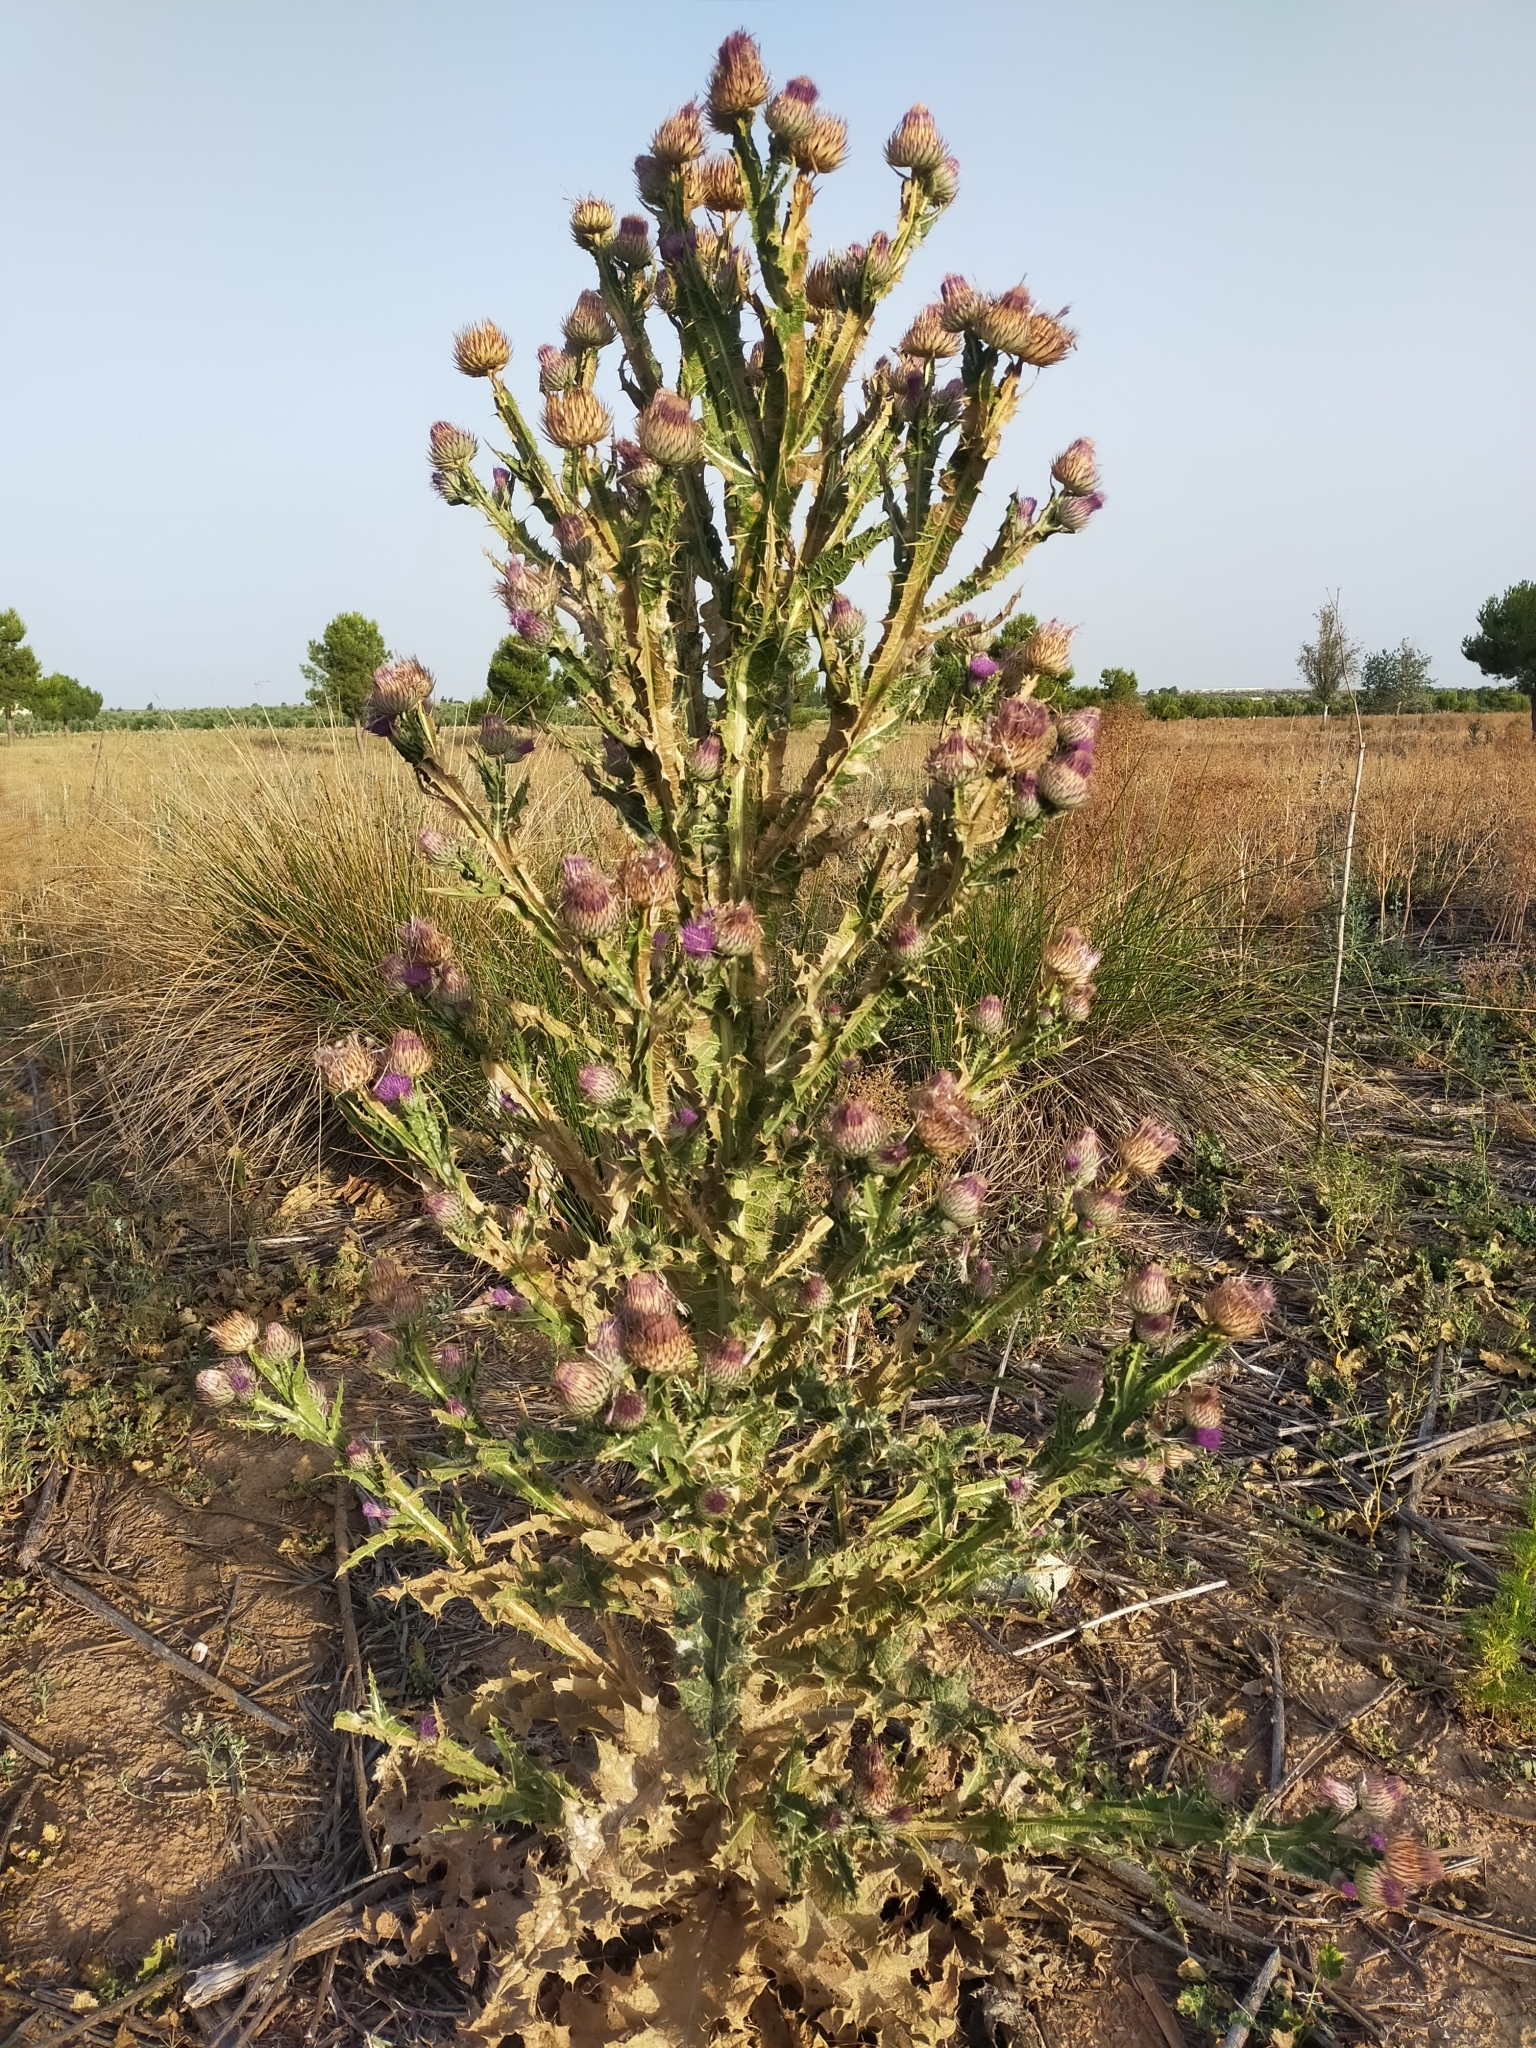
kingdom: Plantae
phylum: Tracheophyta
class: Magnoliopsida
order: Asterales
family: Asteraceae
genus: Onopordum
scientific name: Onopordum nervosum
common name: Reticulate thistle
